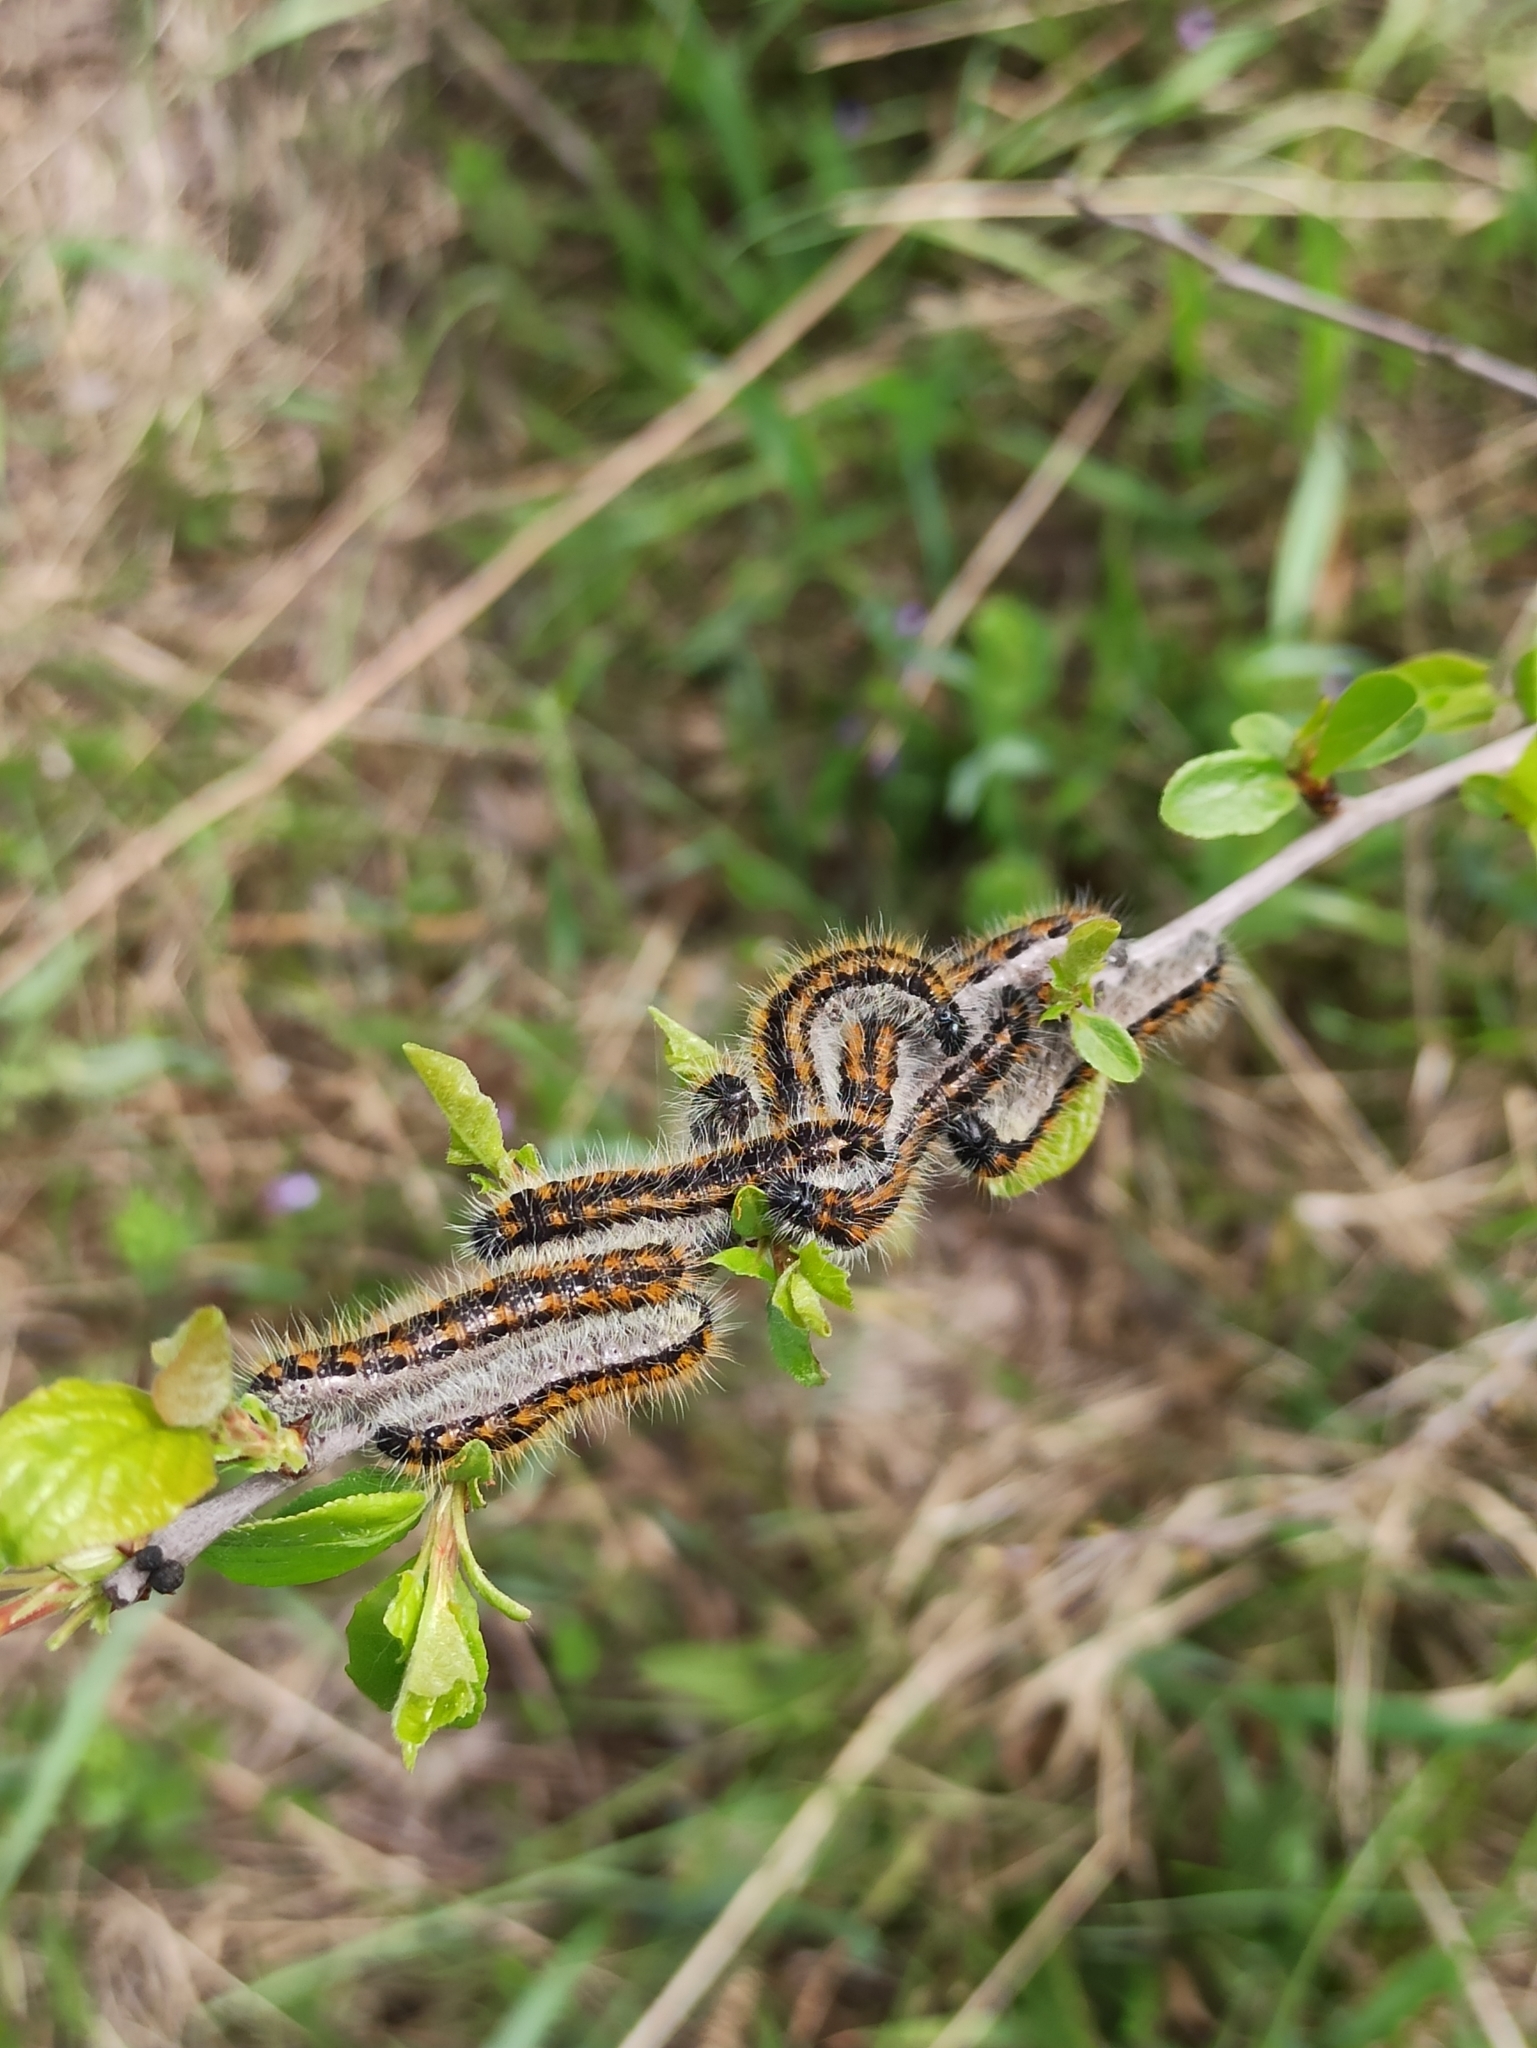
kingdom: Animalia
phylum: Arthropoda
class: Insecta
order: Lepidoptera
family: Pieridae
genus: Aporia
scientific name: Aporia crataegi
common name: Black-veined white
